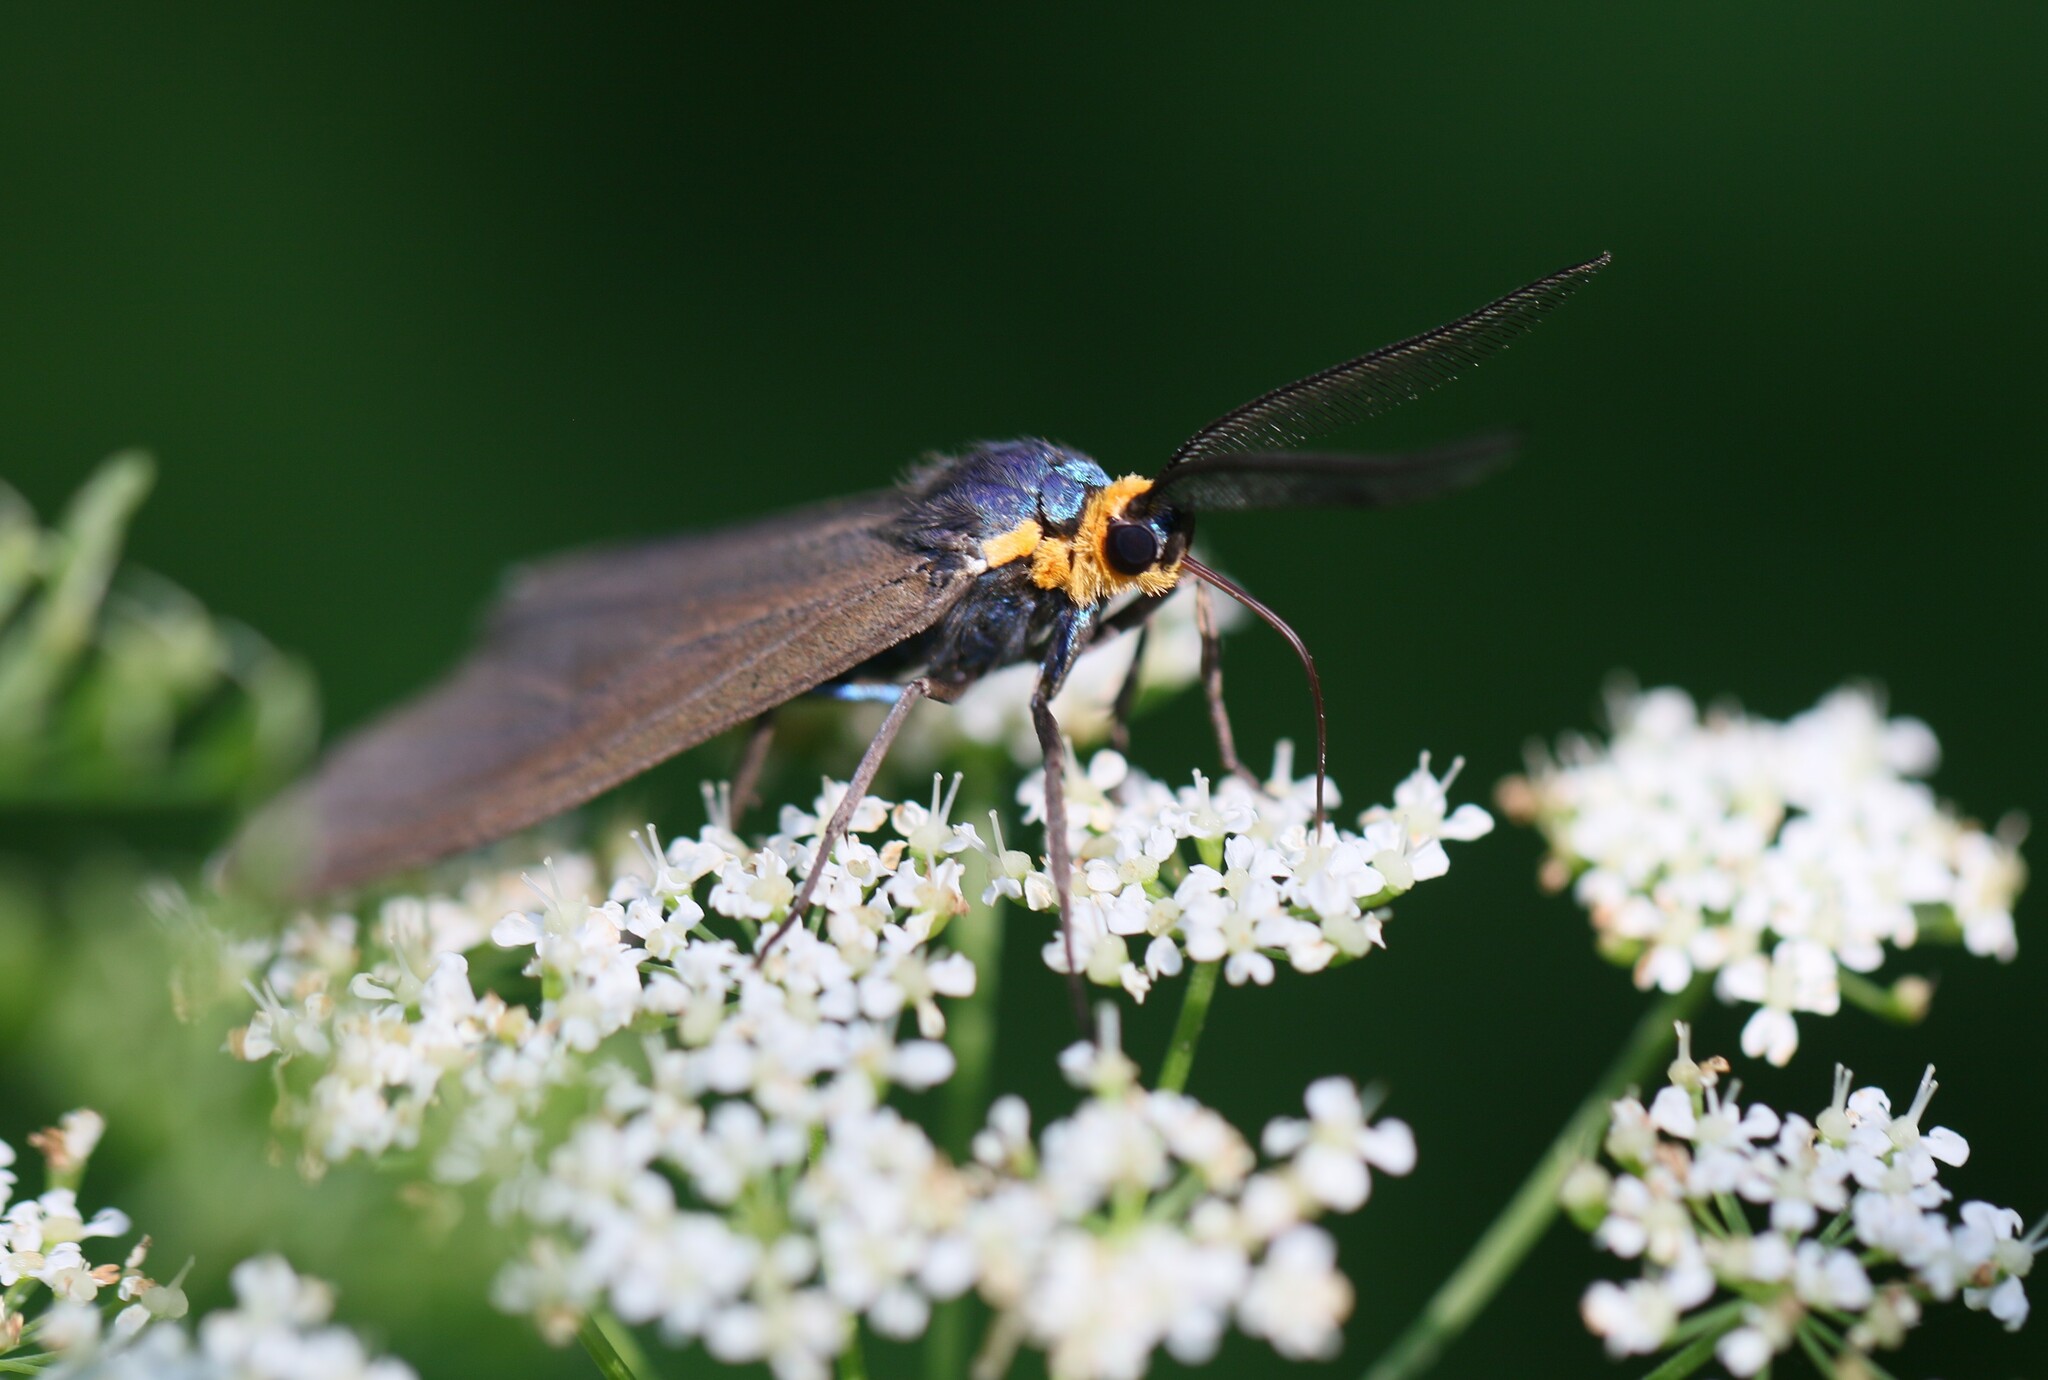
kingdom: Animalia
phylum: Arthropoda
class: Insecta
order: Lepidoptera
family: Erebidae
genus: Ctenucha
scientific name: Ctenucha virginica
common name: Virginia ctenucha moth
